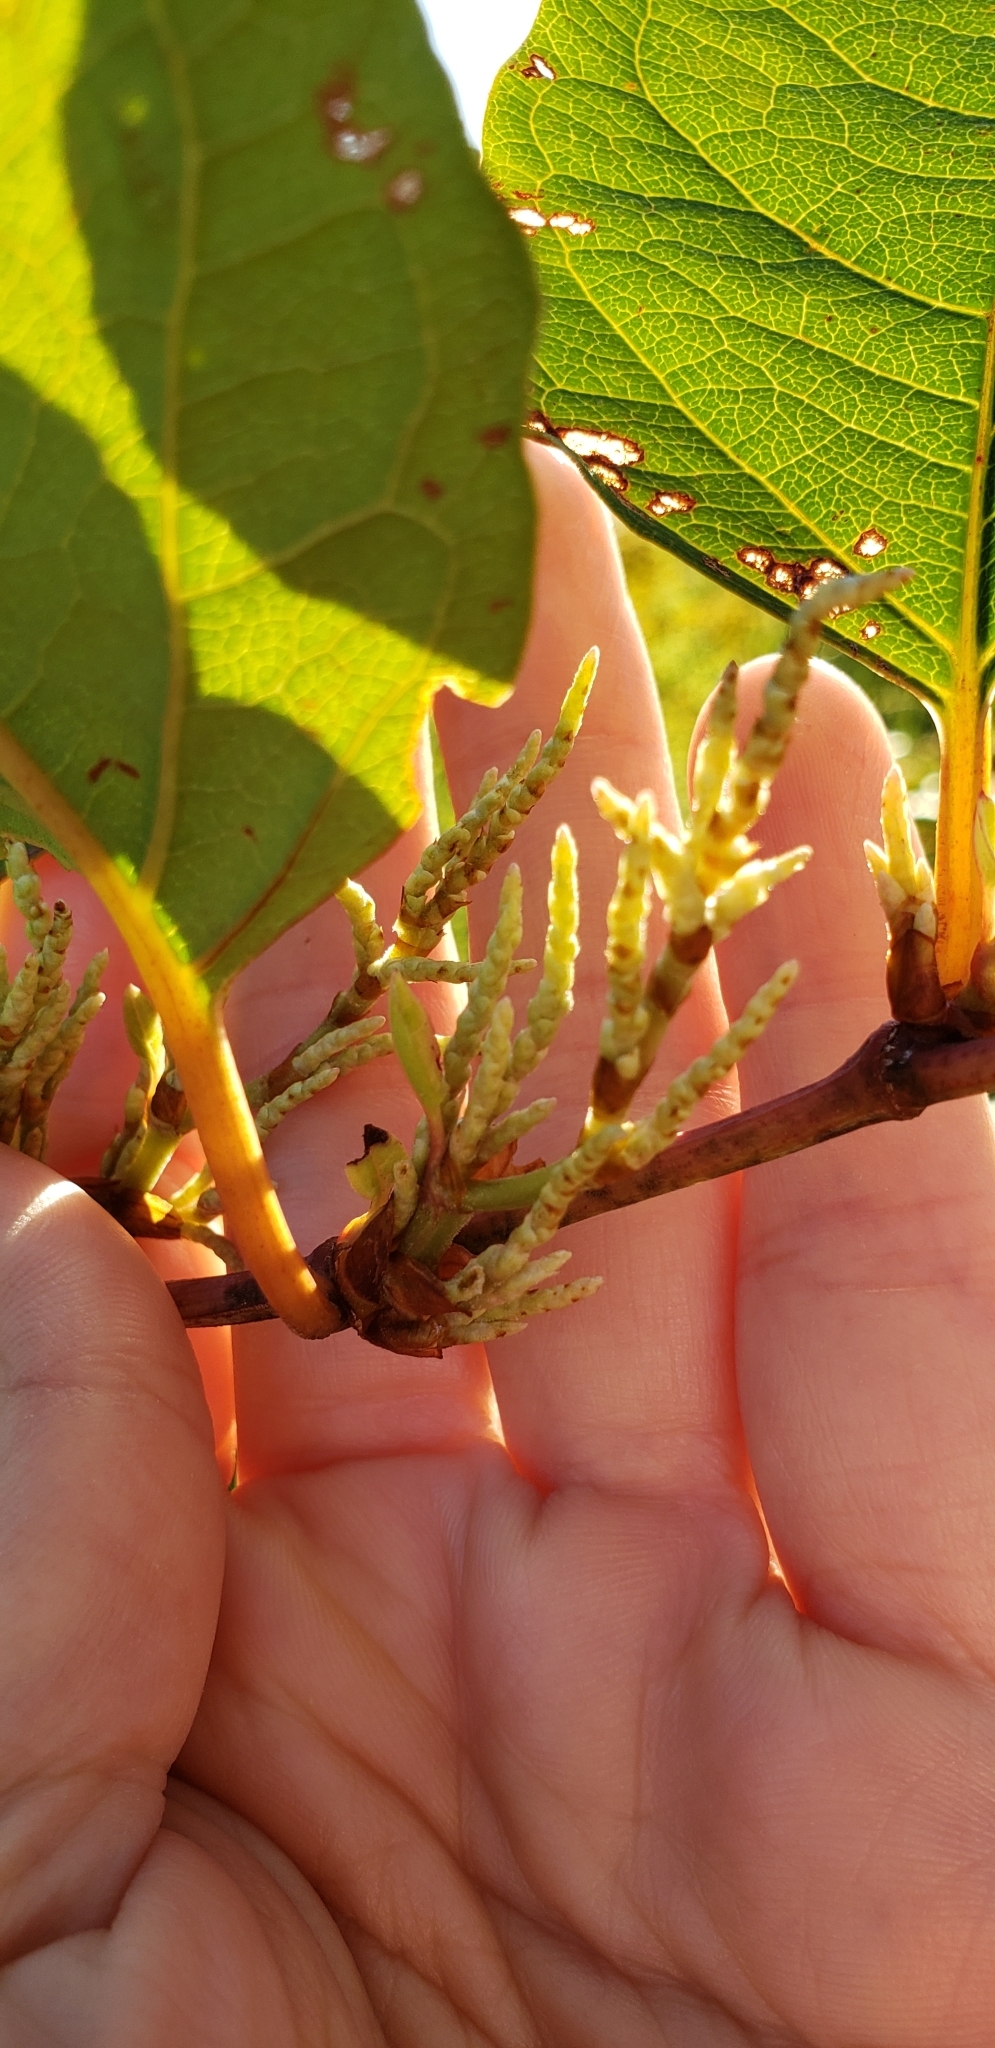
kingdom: Plantae
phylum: Tracheophyta
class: Magnoliopsida
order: Caryophyllales
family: Polygonaceae
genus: Reynoutria
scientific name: Reynoutria japonica
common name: Japanese knotweed
